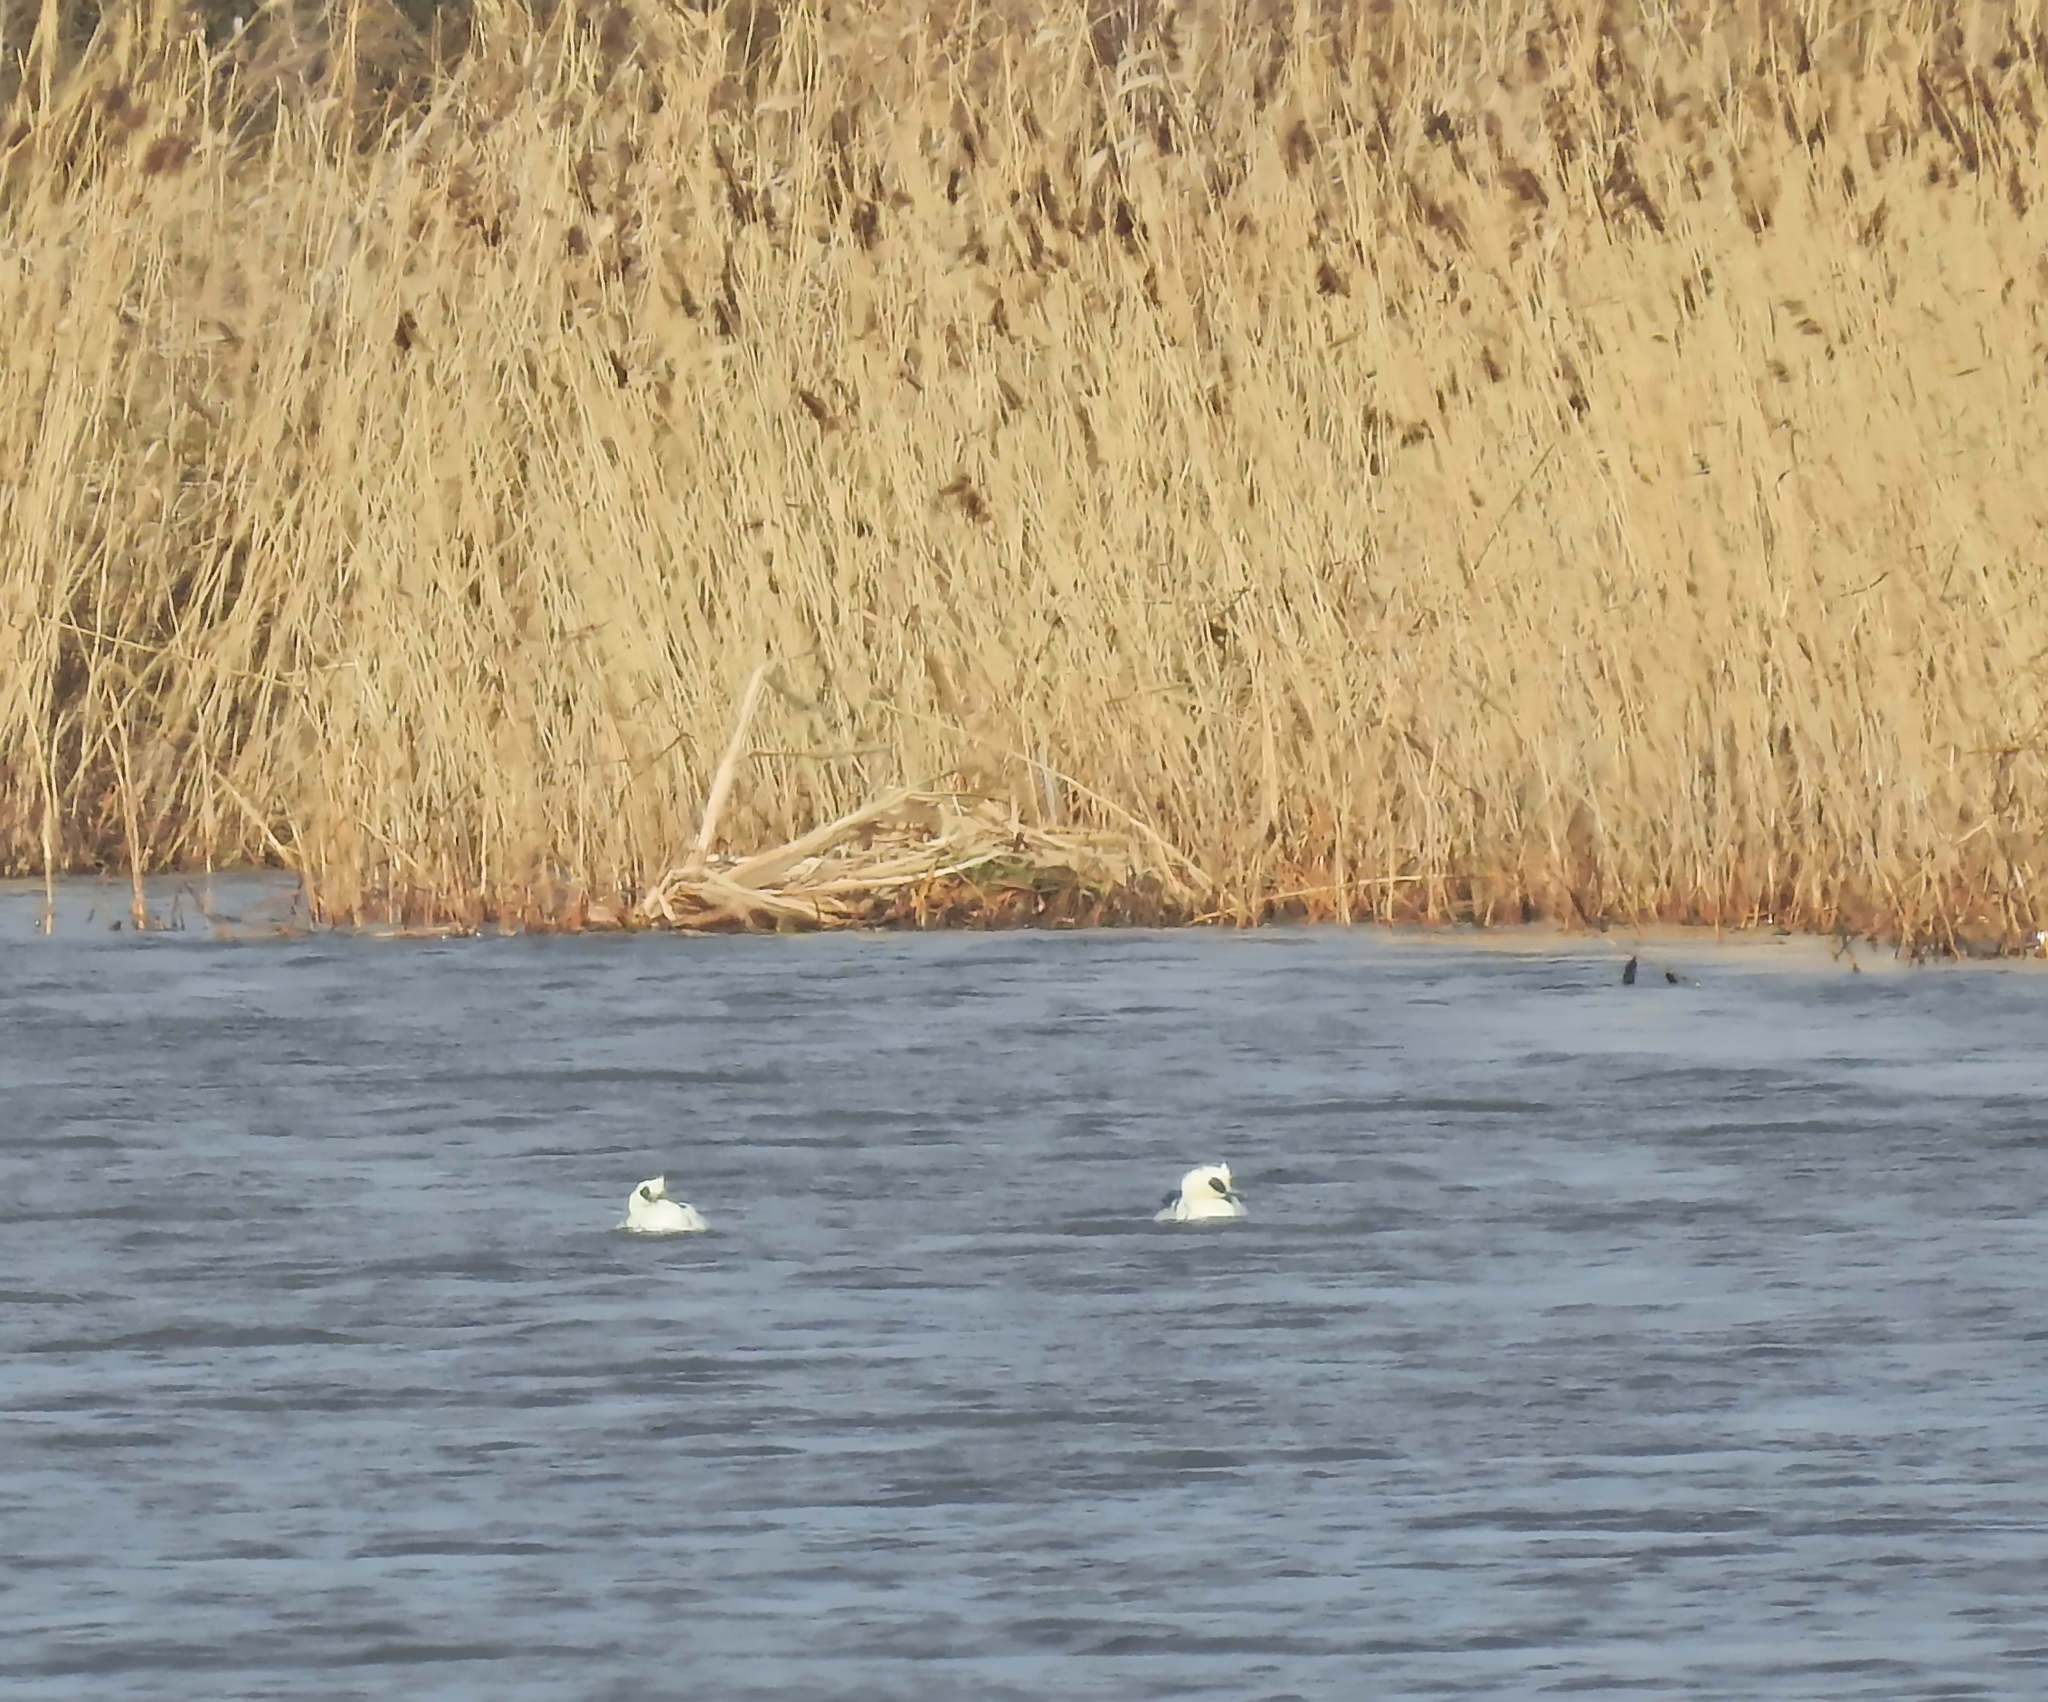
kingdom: Animalia
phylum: Chordata
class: Aves
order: Anseriformes
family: Anatidae
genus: Mergellus
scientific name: Mergellus albellus
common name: Smew
